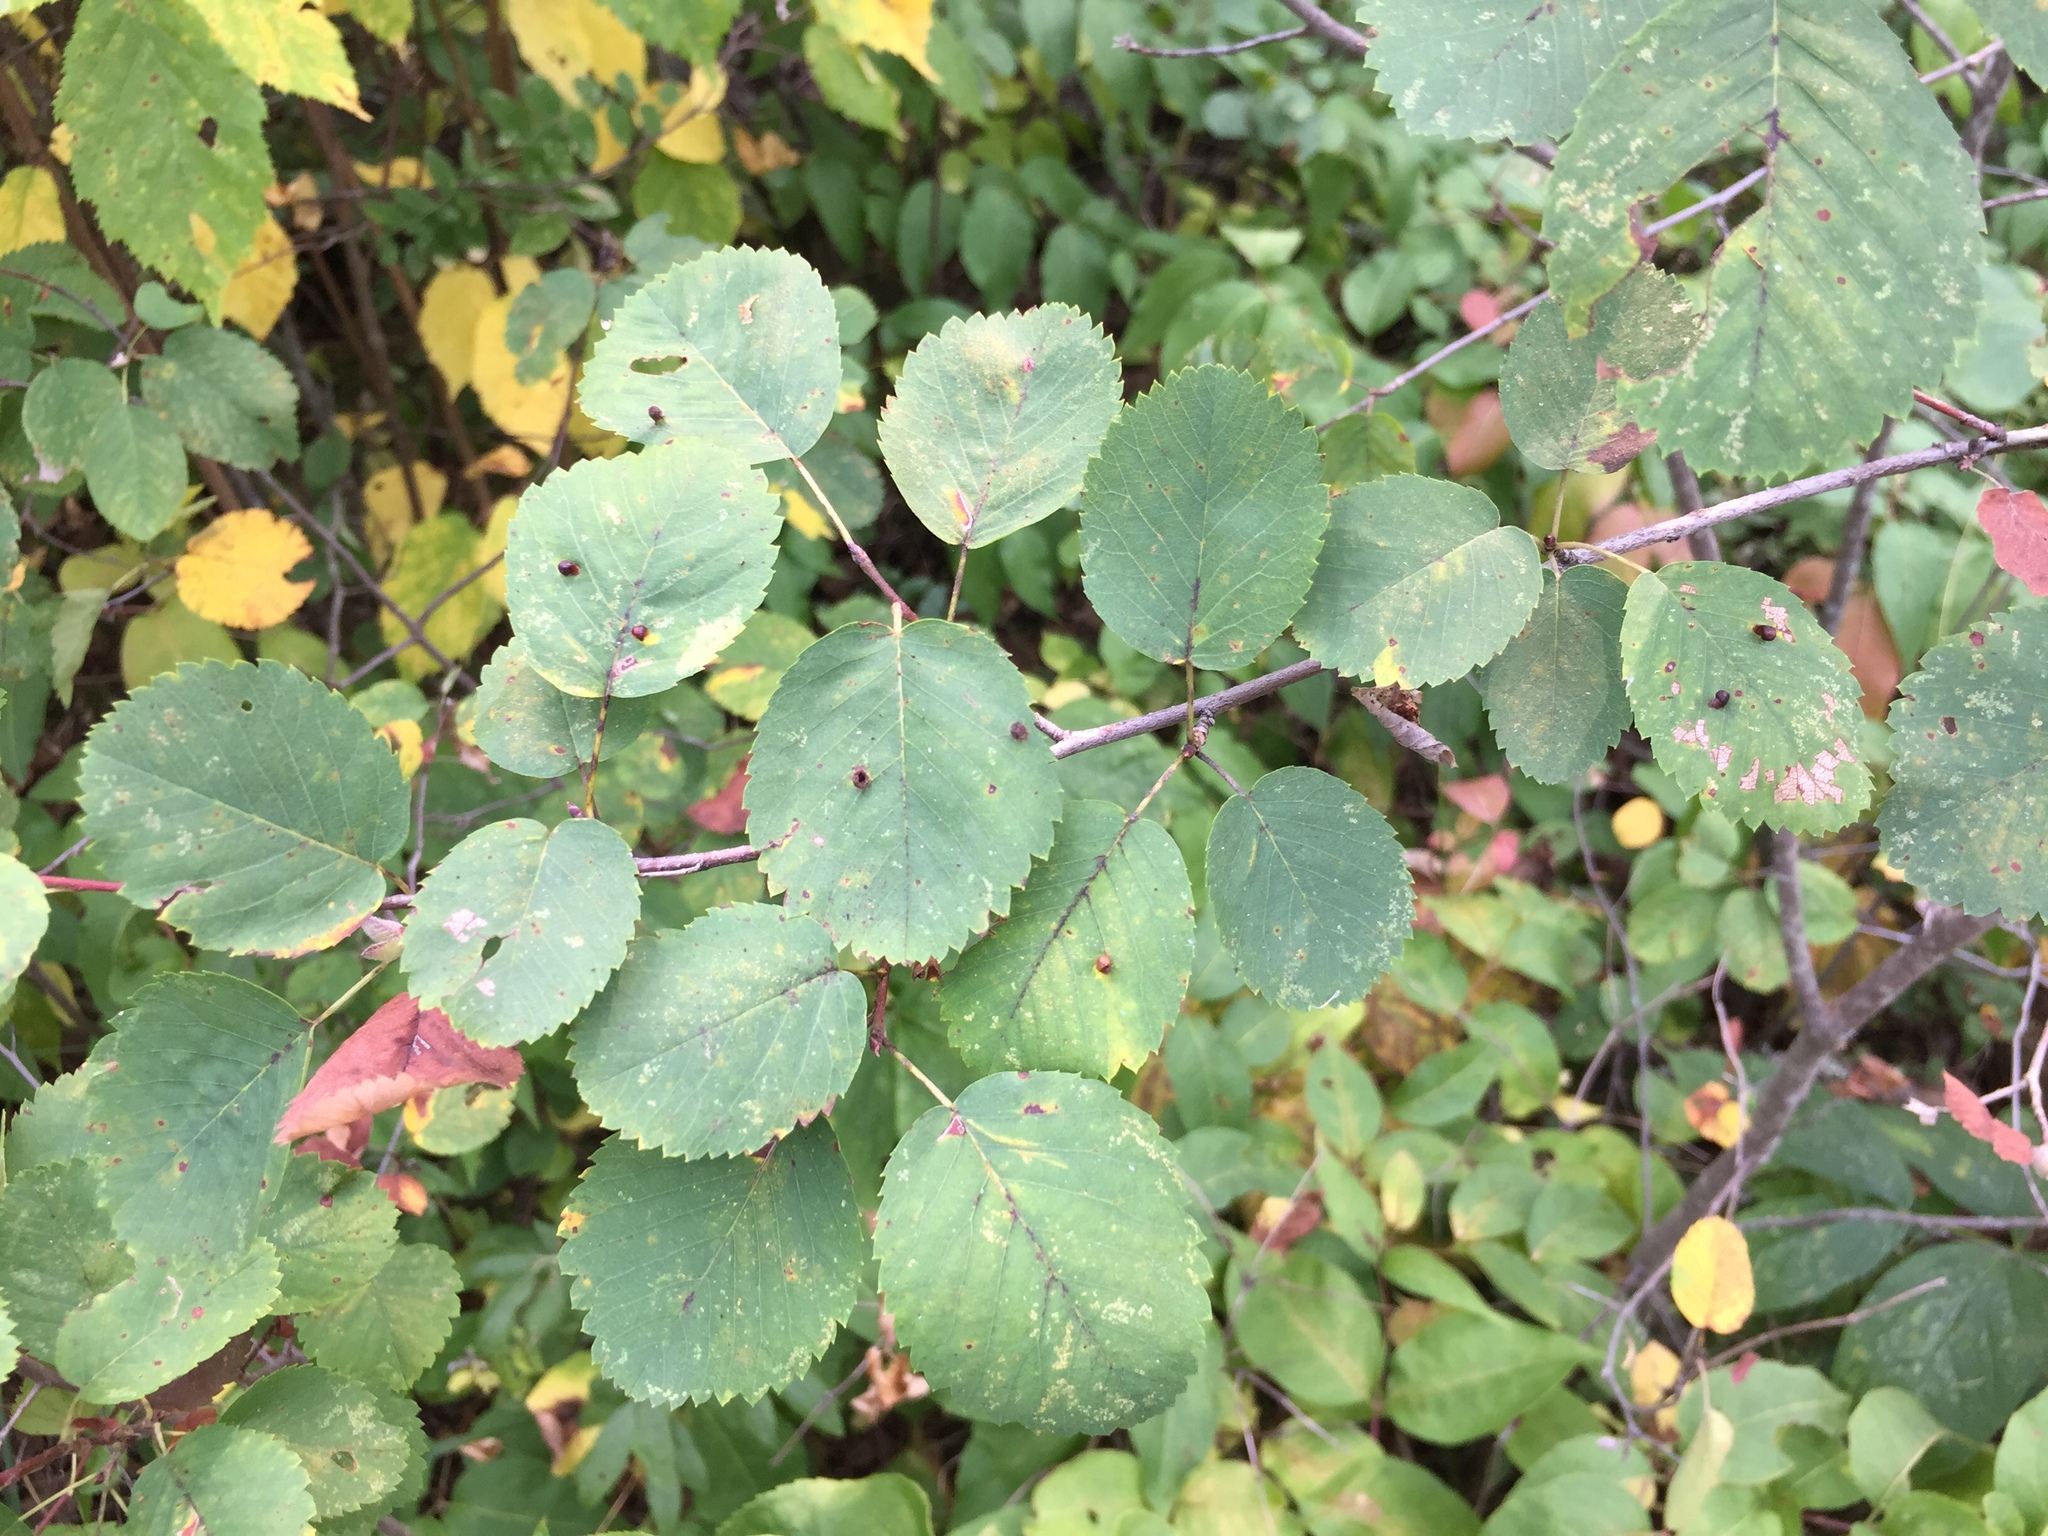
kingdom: Plantae
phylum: Tracheophyta
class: Magnoliopsida
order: Rosales
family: Rosaceae
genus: Amelanchier
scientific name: Amelanchier alnifolia
